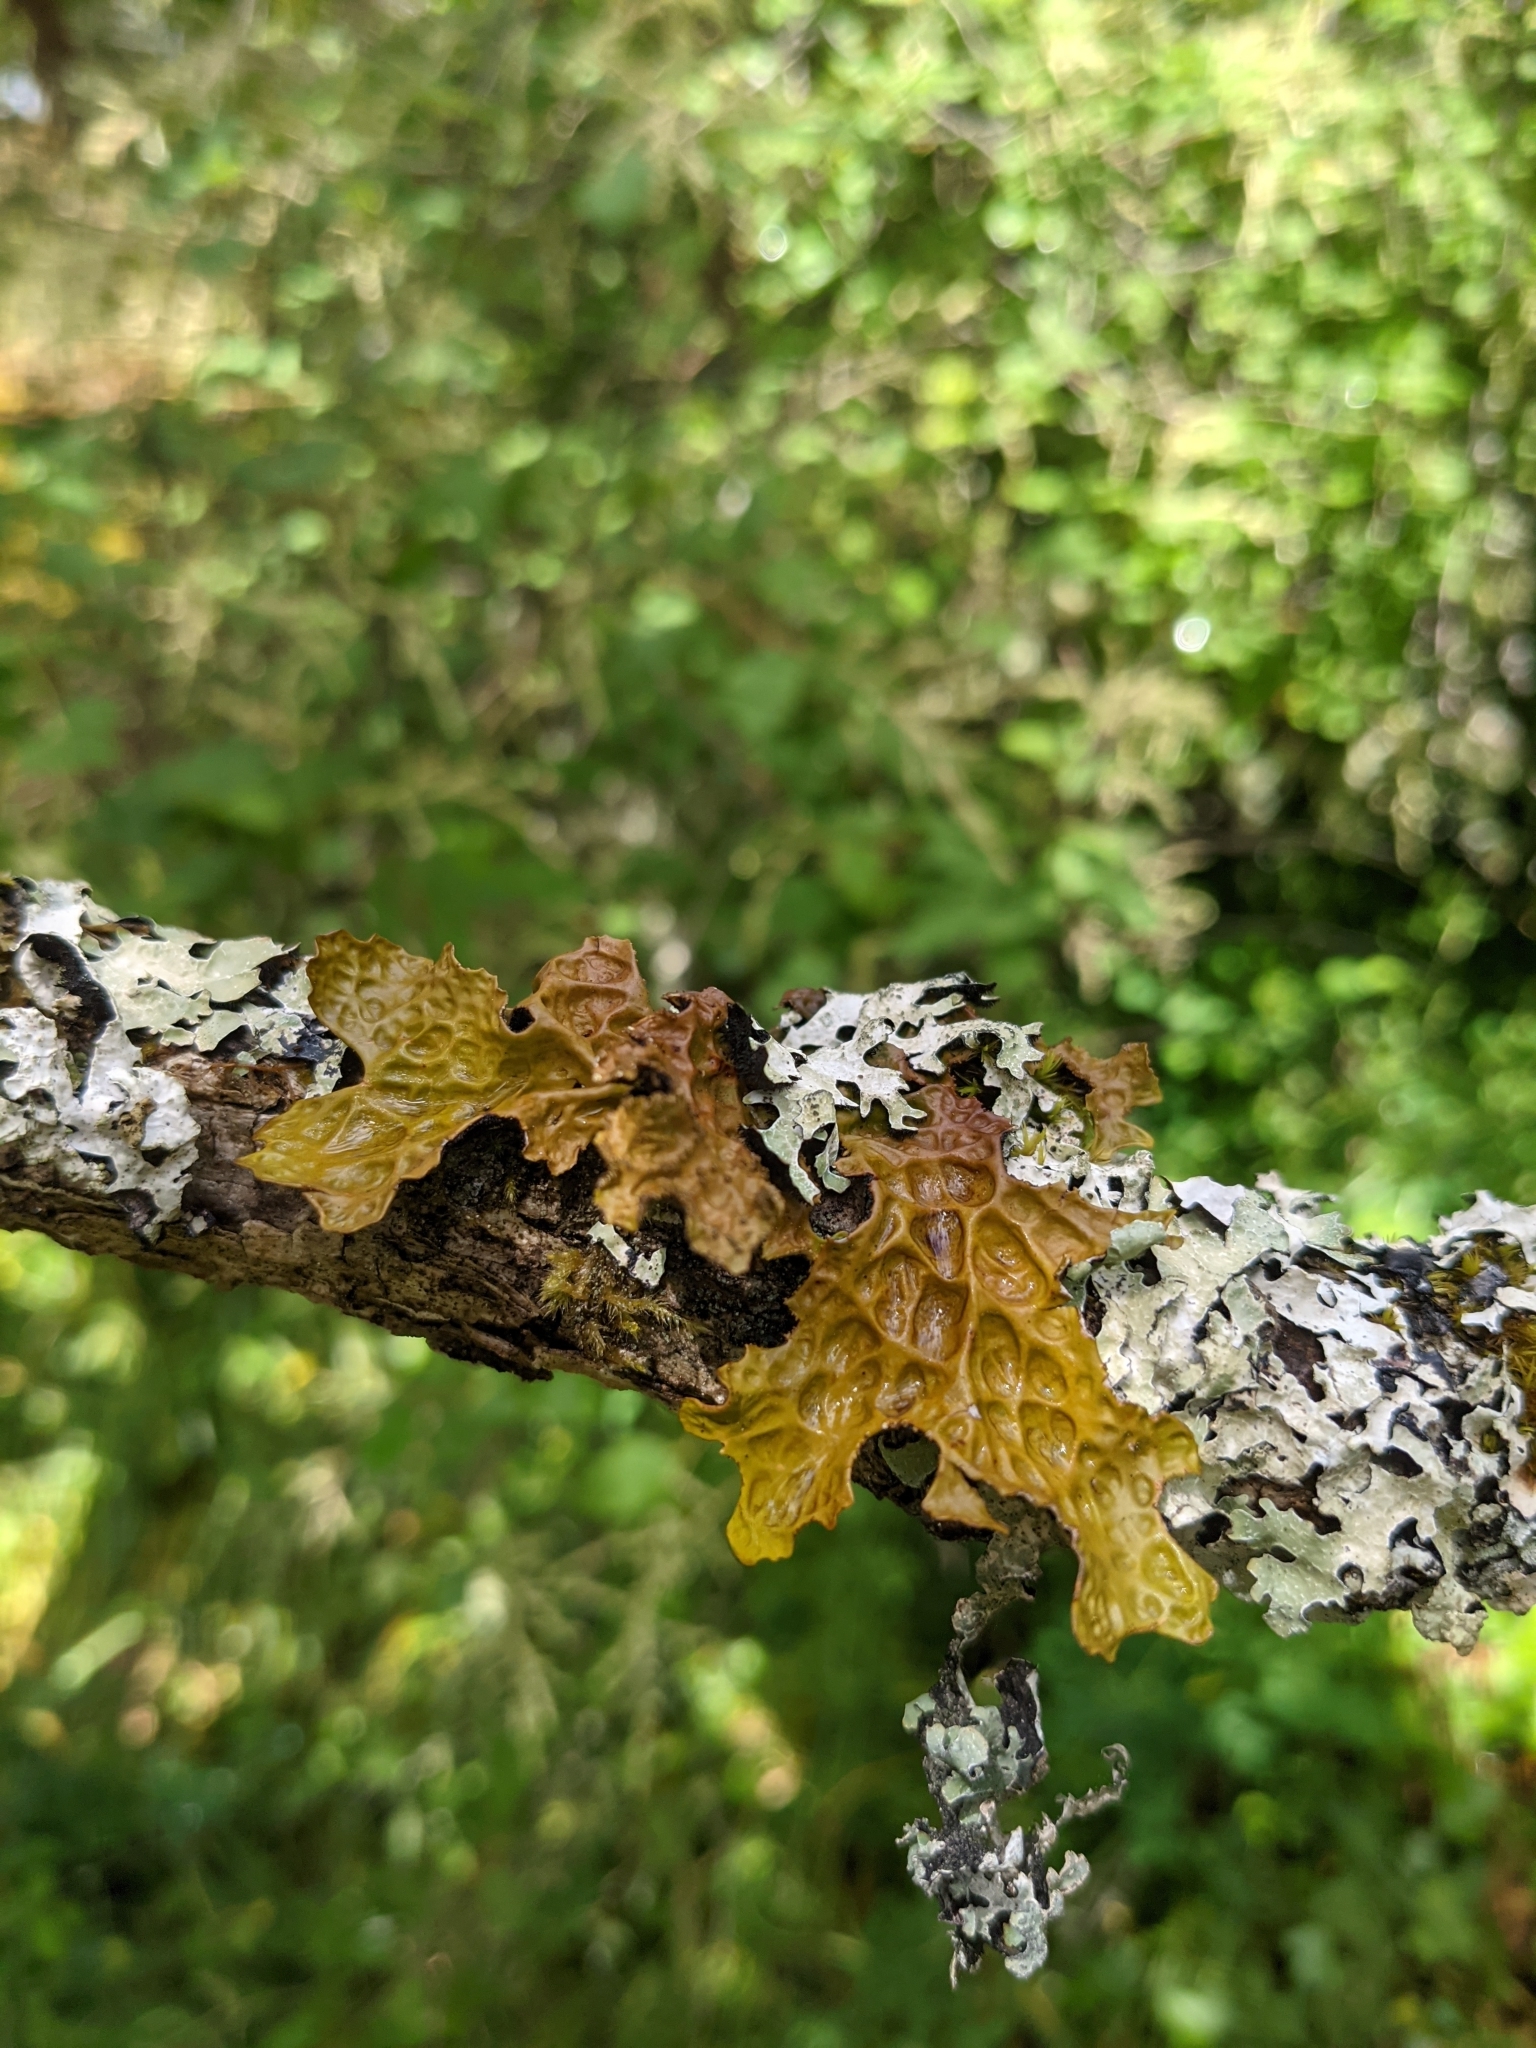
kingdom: Fungi
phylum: Ascomycota
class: Lecanoromycetes
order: Peltigerales
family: Lobariaceae
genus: Lobaria
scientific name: Lobaria pulmonaria
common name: Lungwort
